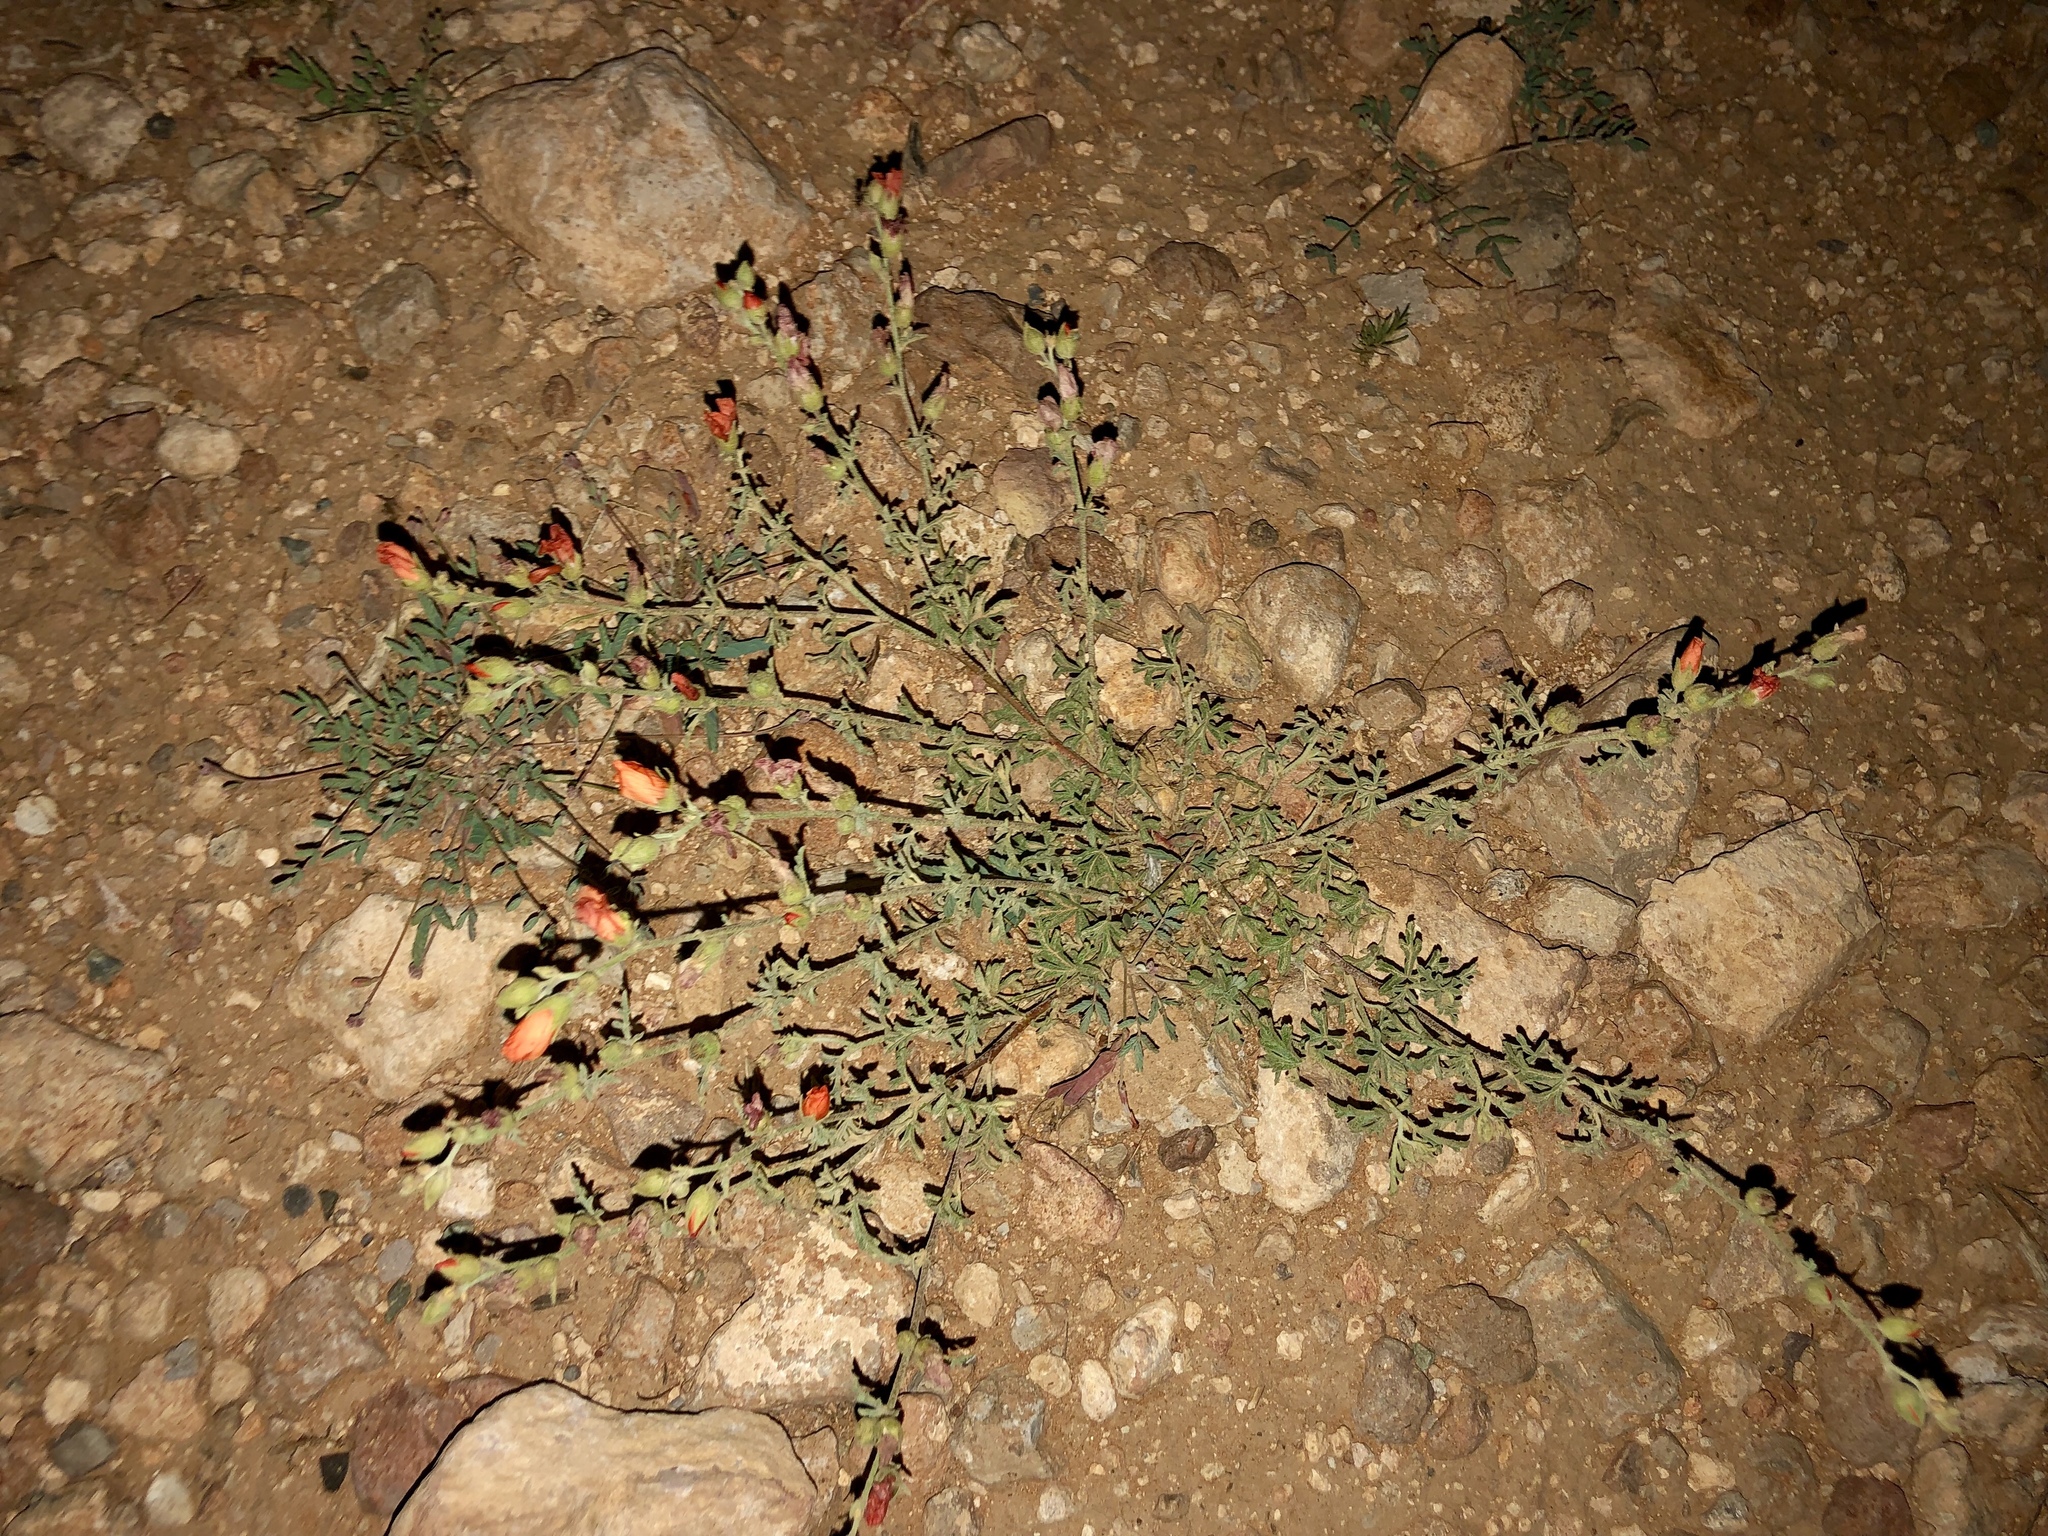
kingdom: Plantae
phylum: Tracheophyta
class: Magnoliopsida
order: Malvales
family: Malvaceae
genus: Sphaeralcea
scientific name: Sphaeralcea coccinea
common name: Moss-rose
